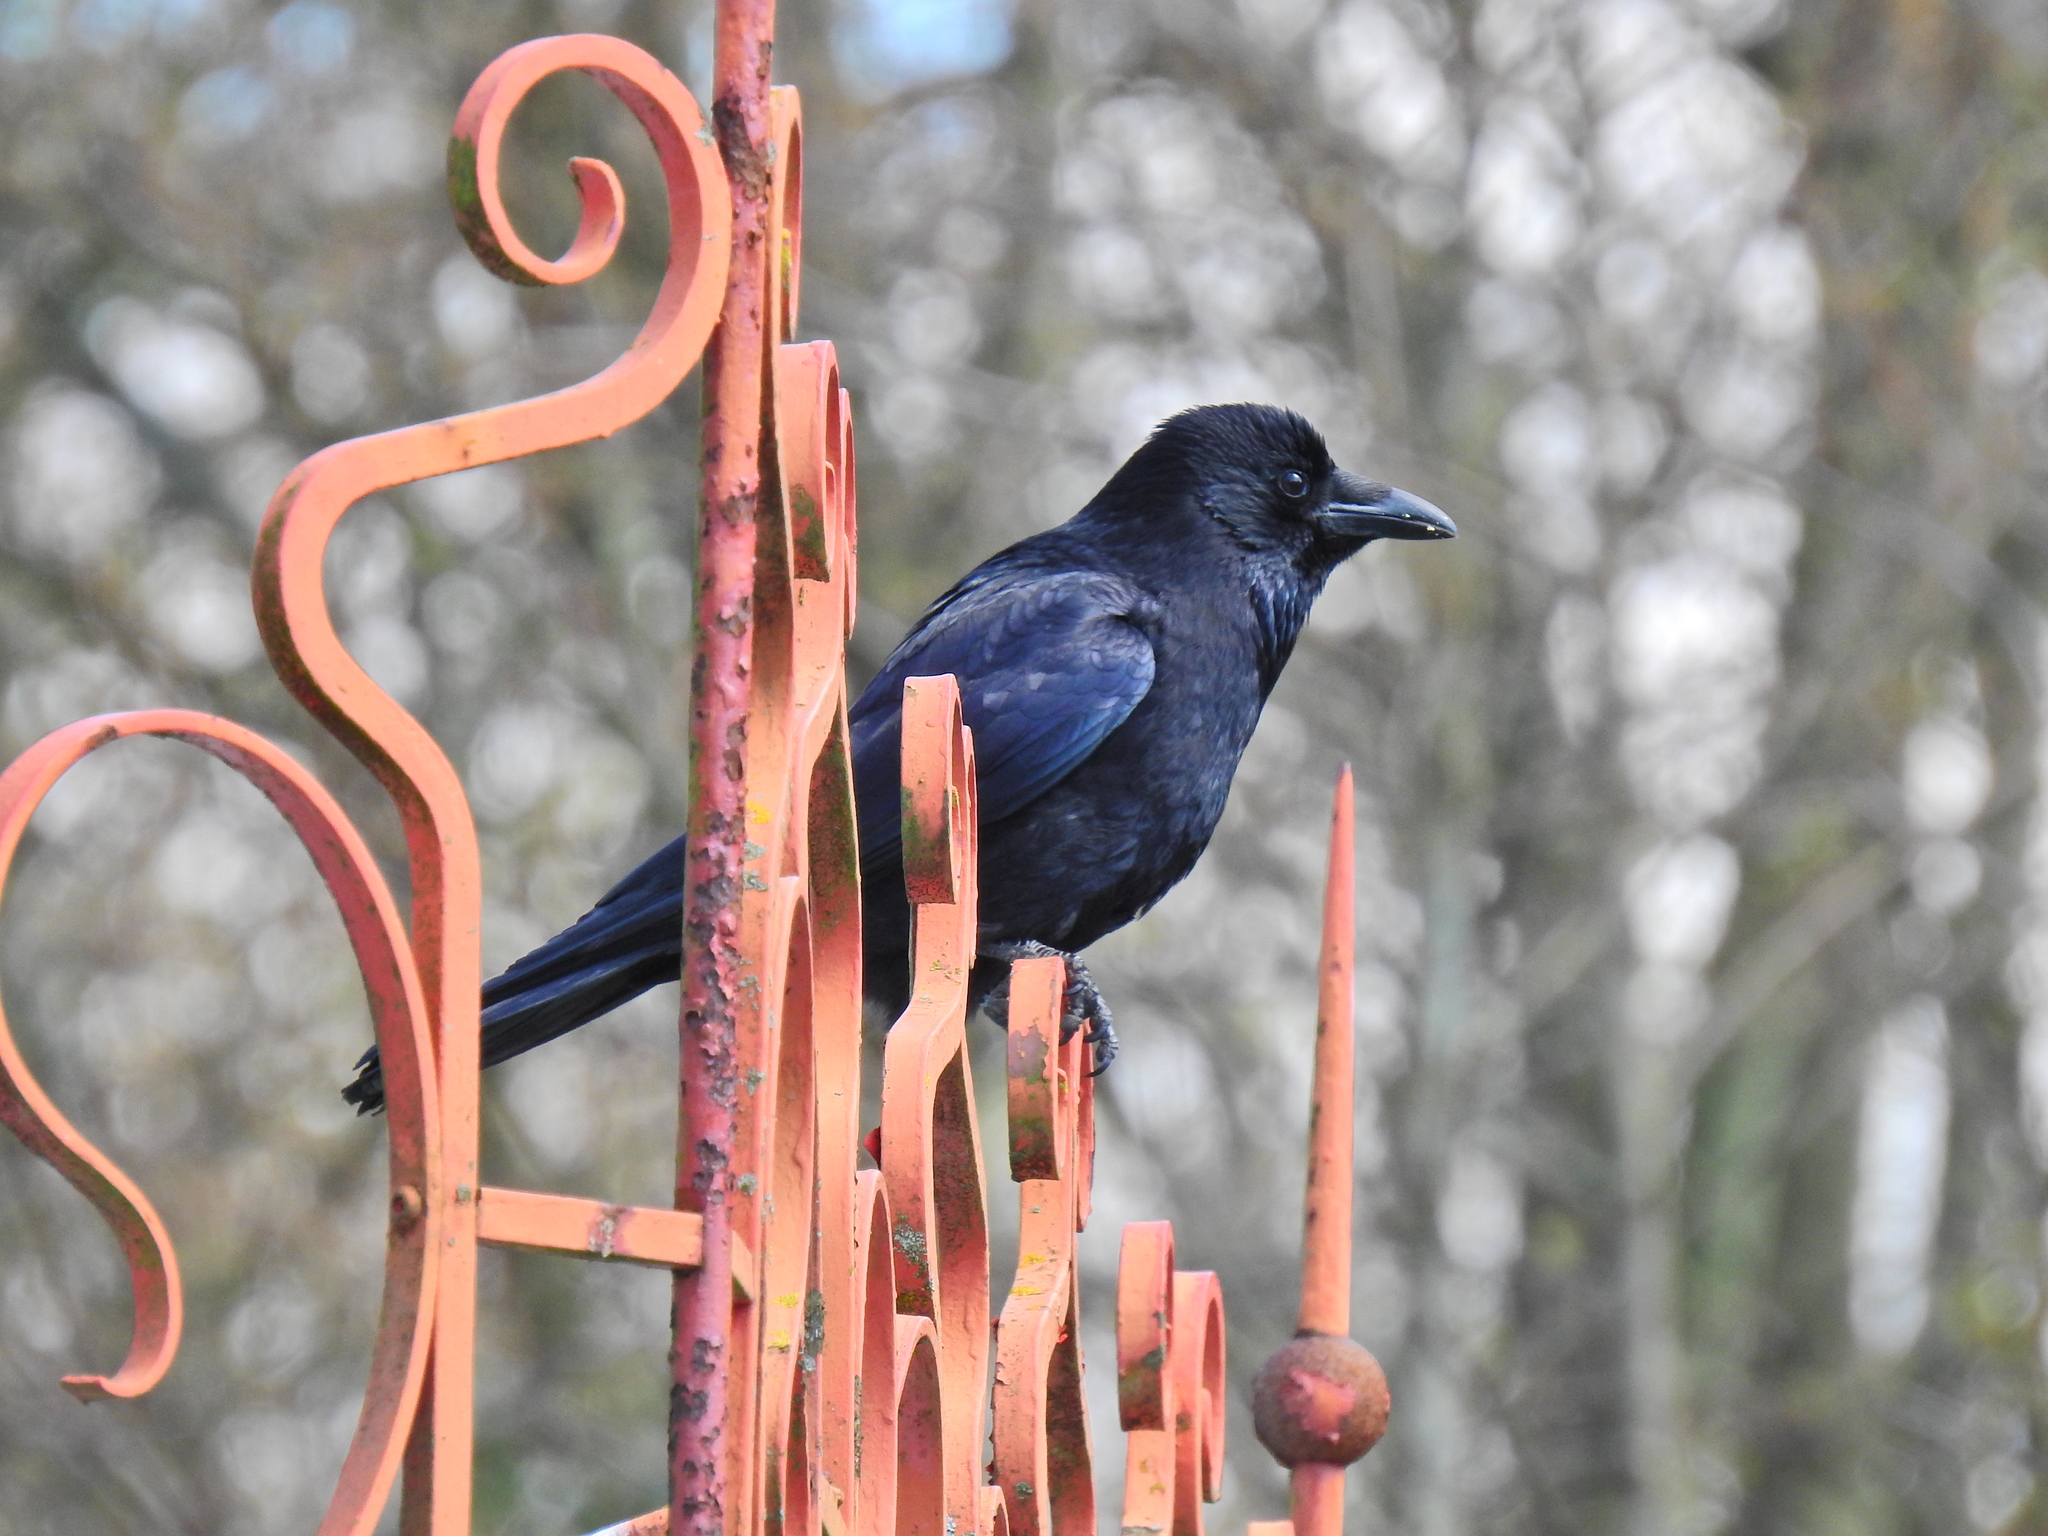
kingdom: Animalia
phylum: Chordata
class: Aves
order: Passeriformes
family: Corvidae
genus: Corvus
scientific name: Corvus corone
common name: Carrion crow
